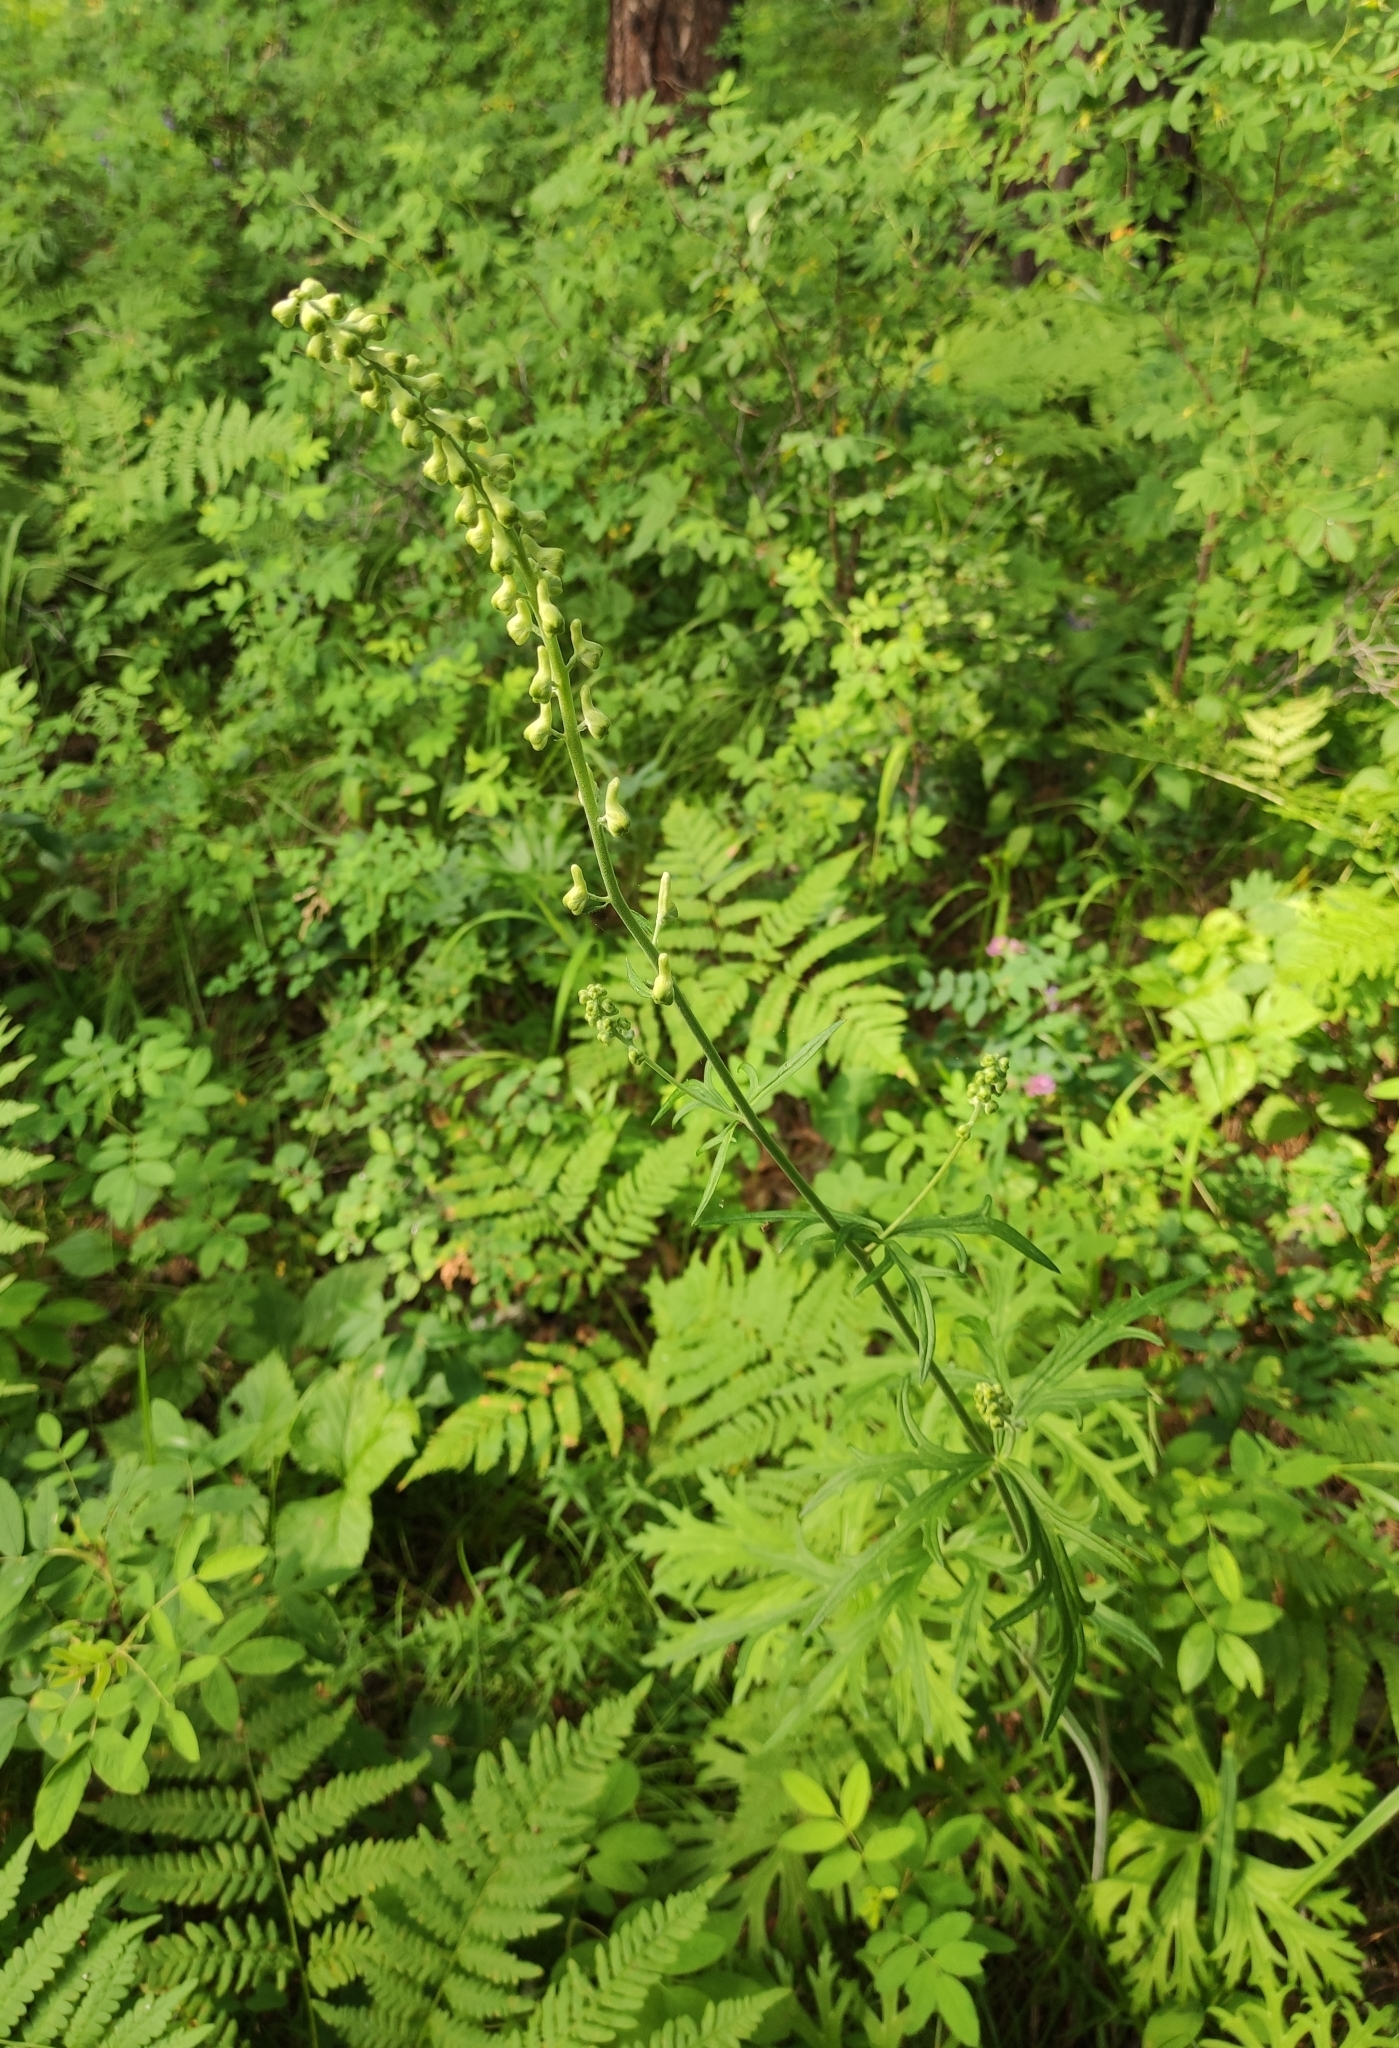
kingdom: Plantae
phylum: Tracheophyta
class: Magnoliopsida
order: Ranunculales
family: Ranunculaceae
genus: Aconitum
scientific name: Aconitum barbatum
